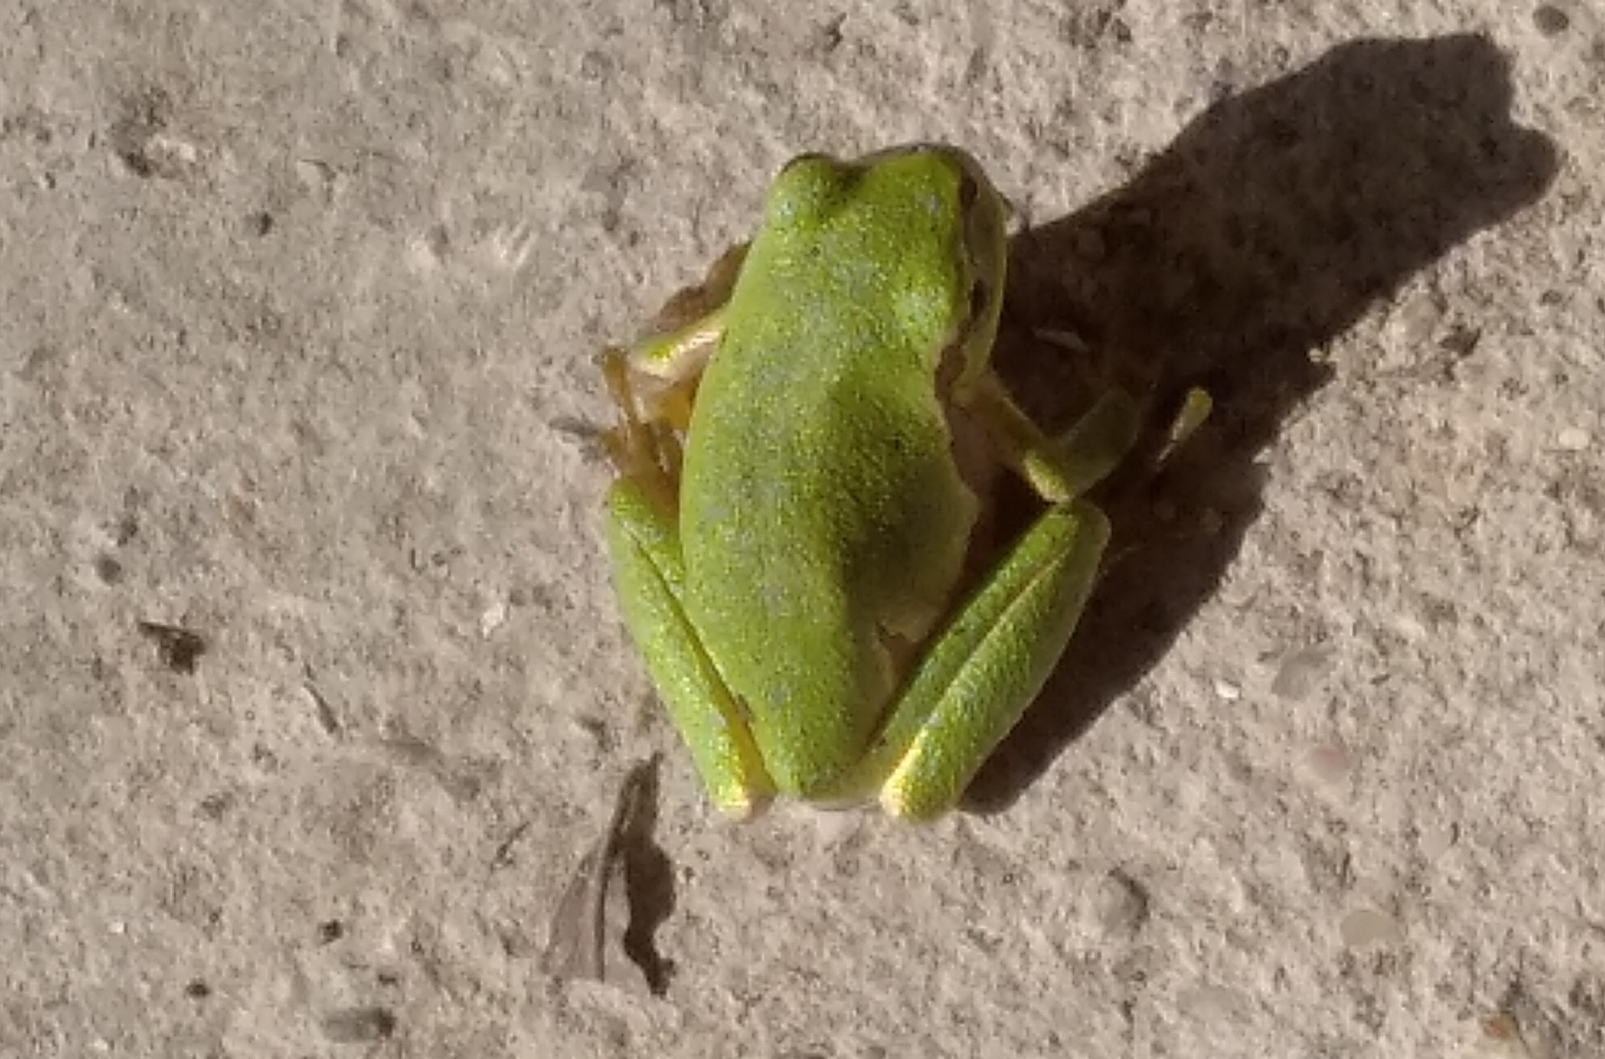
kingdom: Animalia
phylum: Chordata
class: Amphibia
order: Anura
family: Hylidae
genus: Hyla
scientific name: Hyla orientalis
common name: Caucasian treefrog
